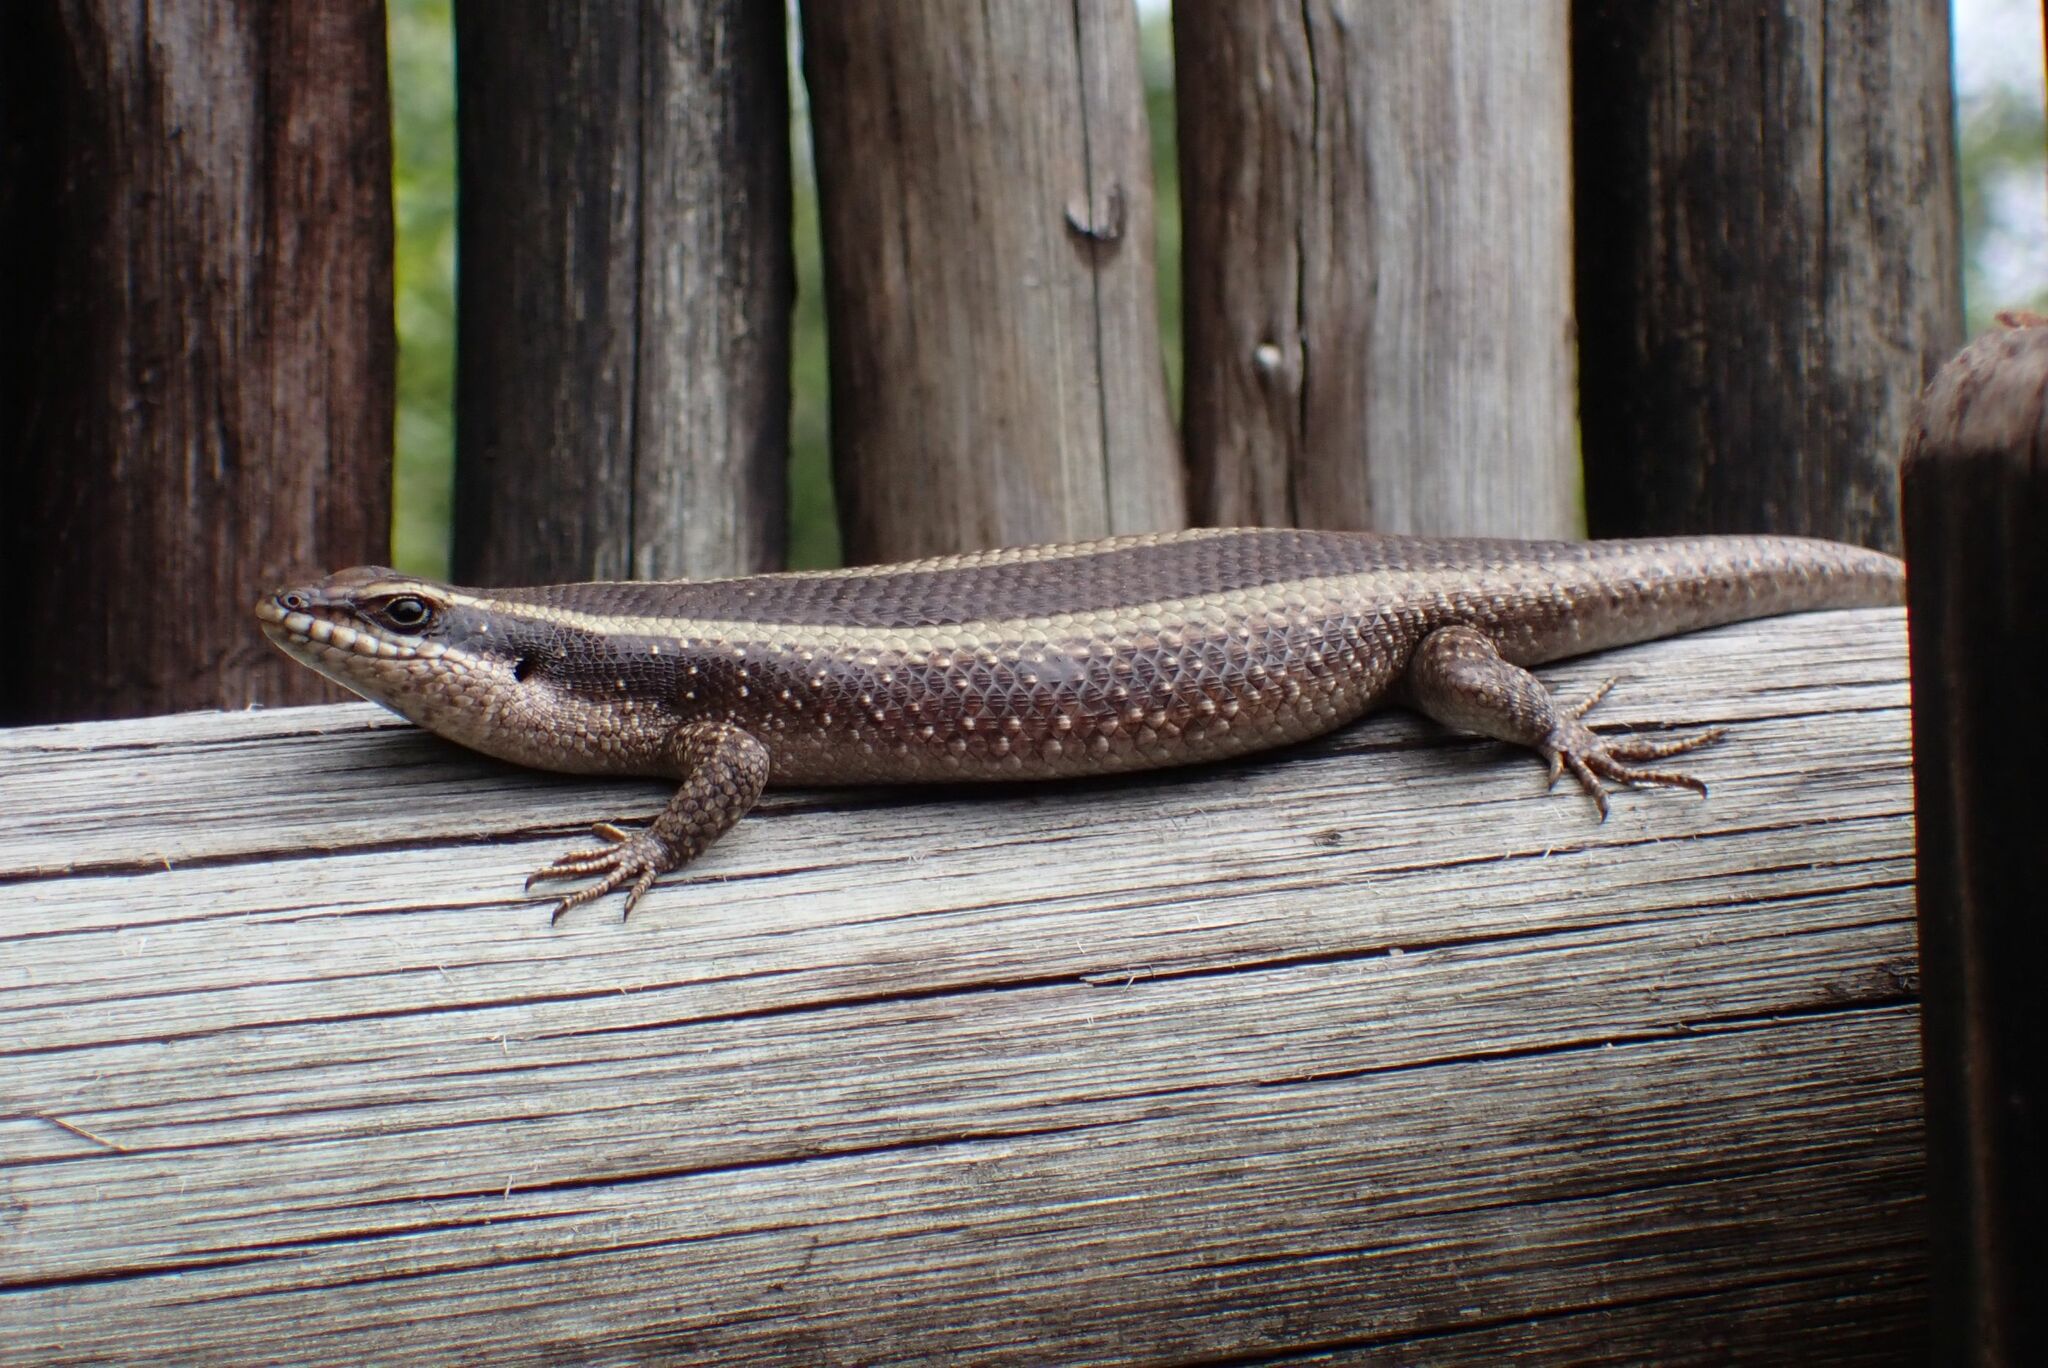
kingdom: Animalia
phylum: Chordata
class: Squamata
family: Scincidae
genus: Trachylepis
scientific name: Trachylepis striata
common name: African striped mabuya
